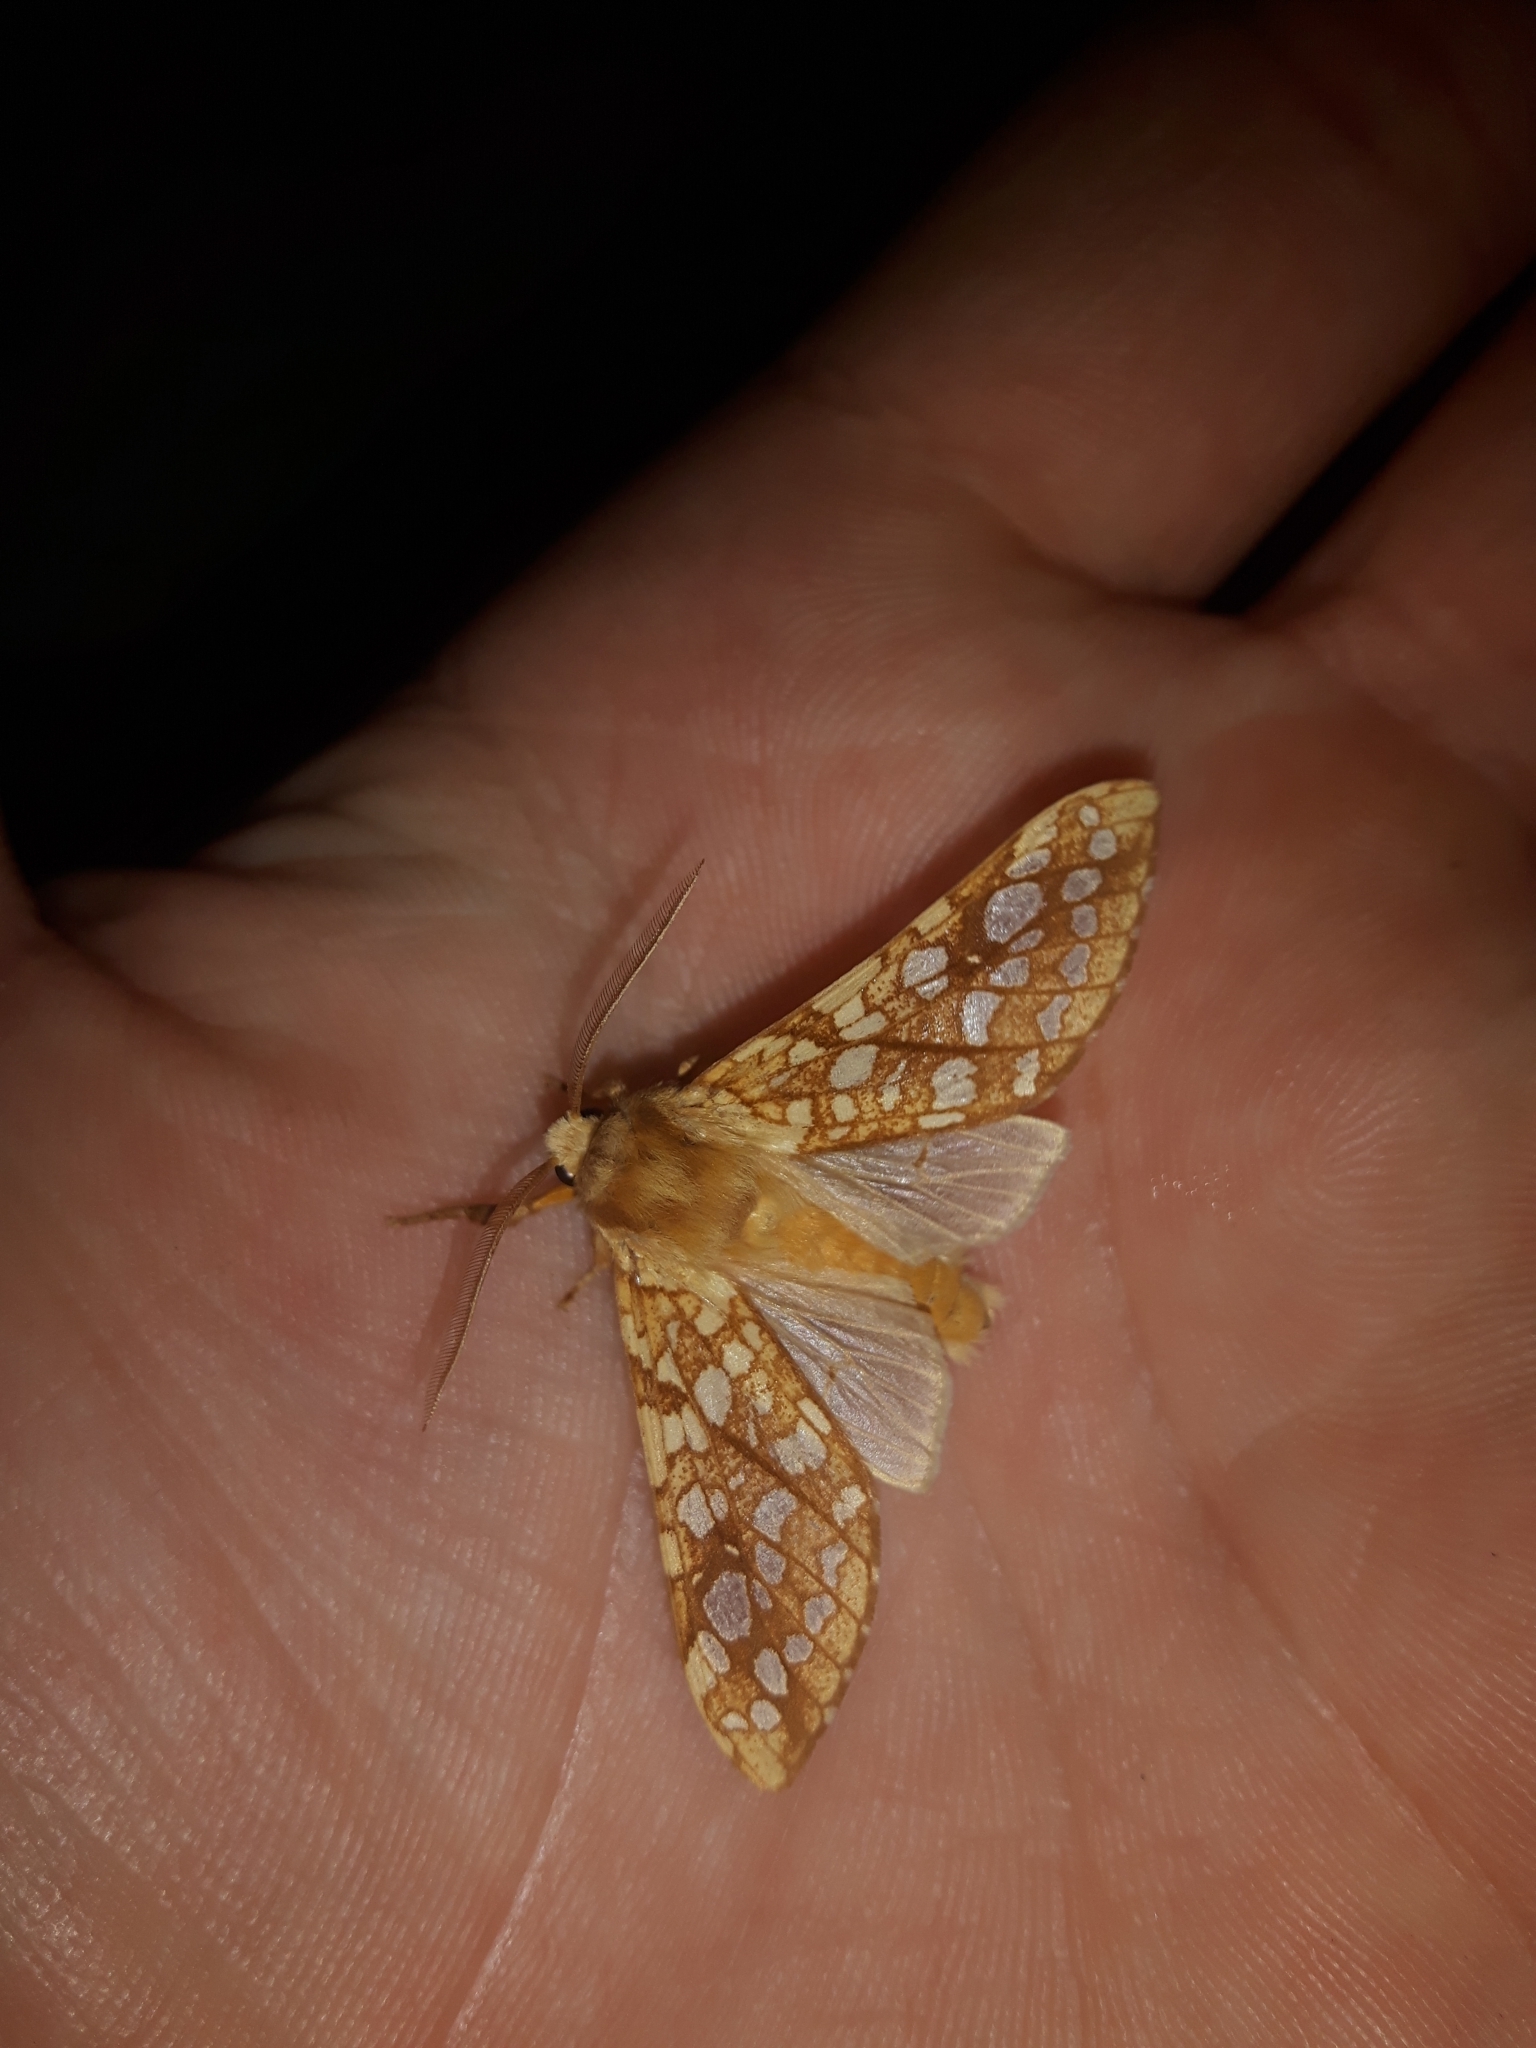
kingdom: Animalia
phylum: Arthropoda
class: Insecta
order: Lepidoptera
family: Erebidae
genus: Lophocampa
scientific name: Lophocampa caryae
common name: Hickory tussock moth
